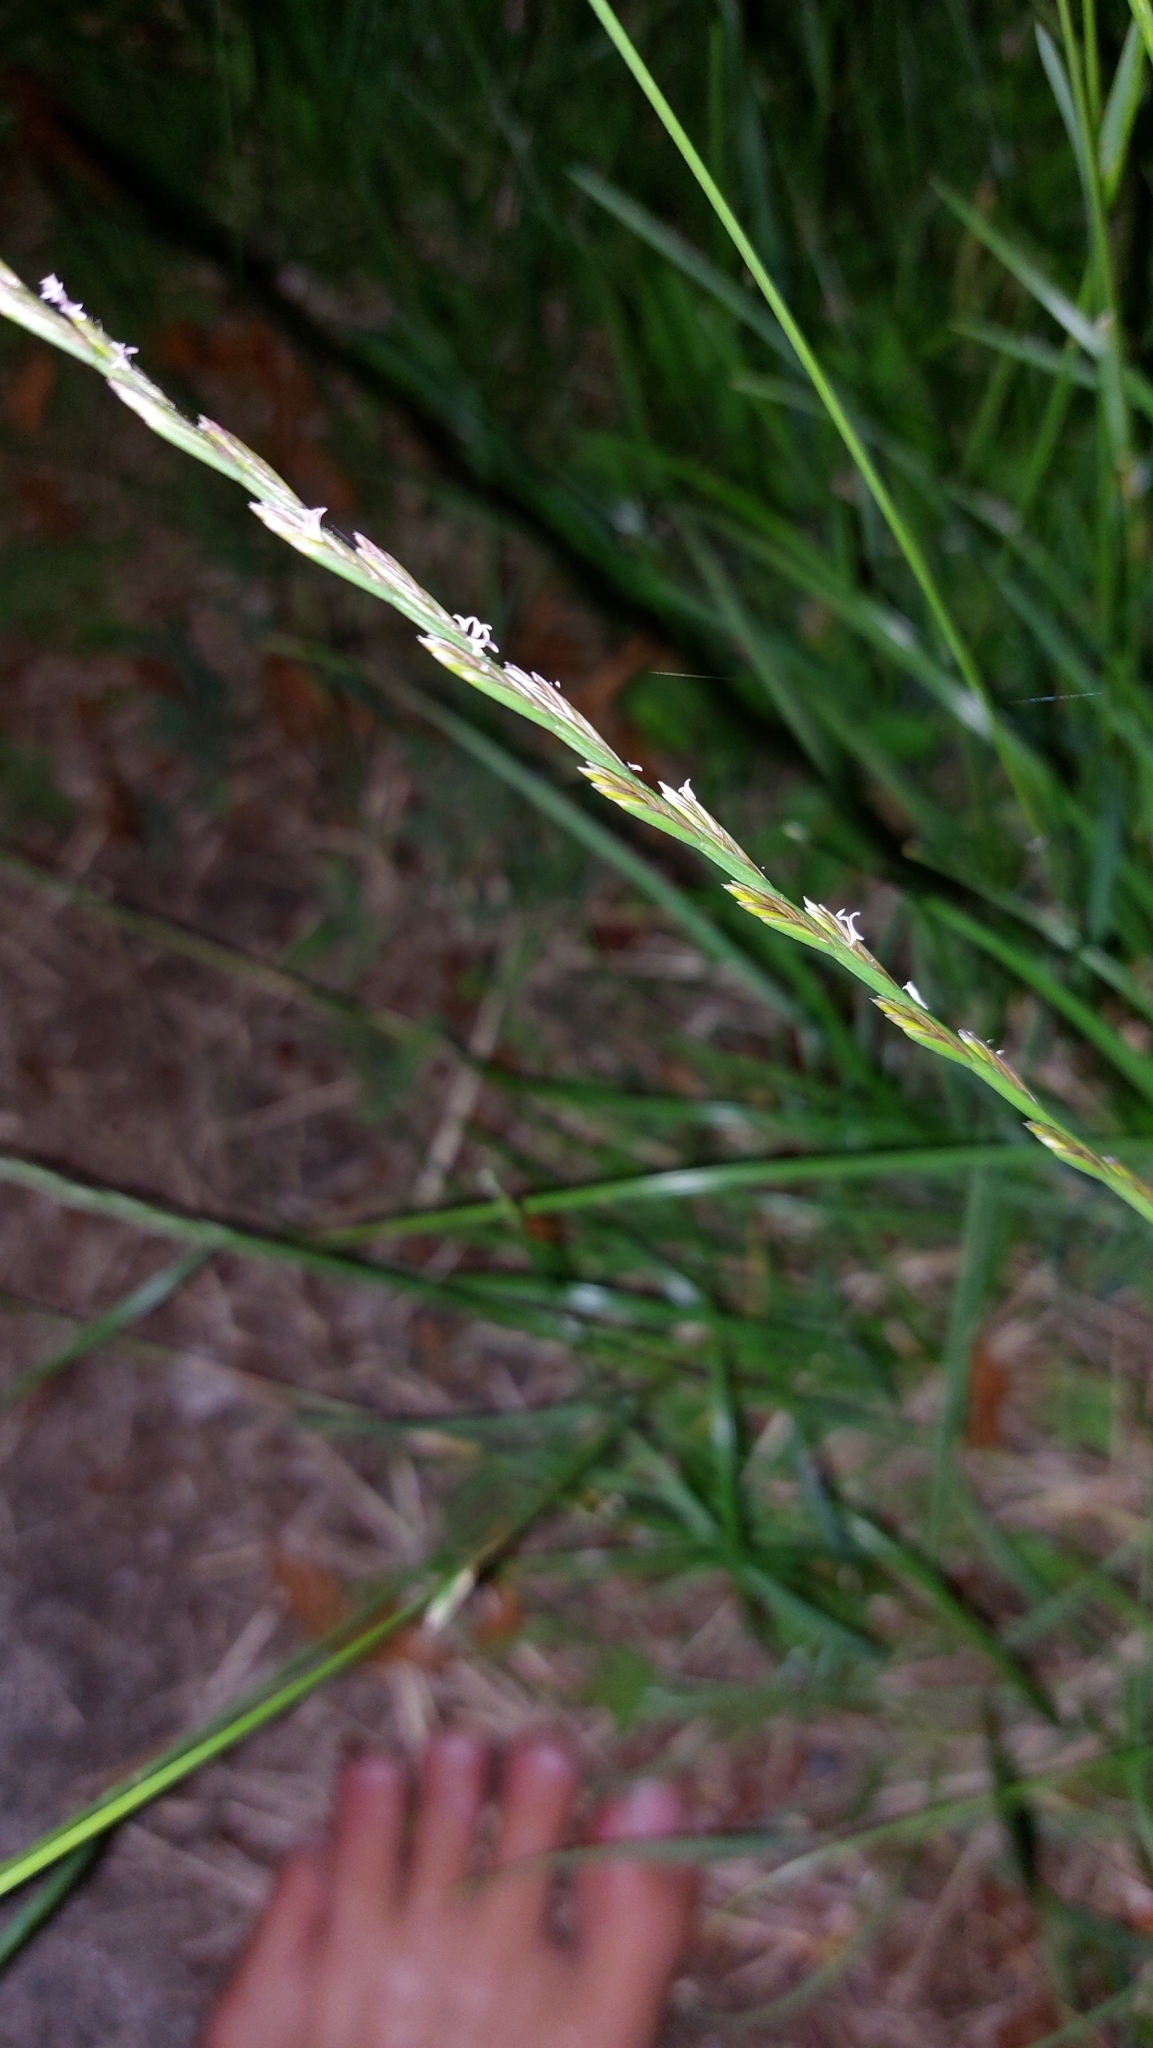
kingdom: Plantae
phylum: Tracheophyta
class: Liliopsida
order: Poales
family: Poaceae
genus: Lolium
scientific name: Lolium perenne
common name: Perennial ryegrass
